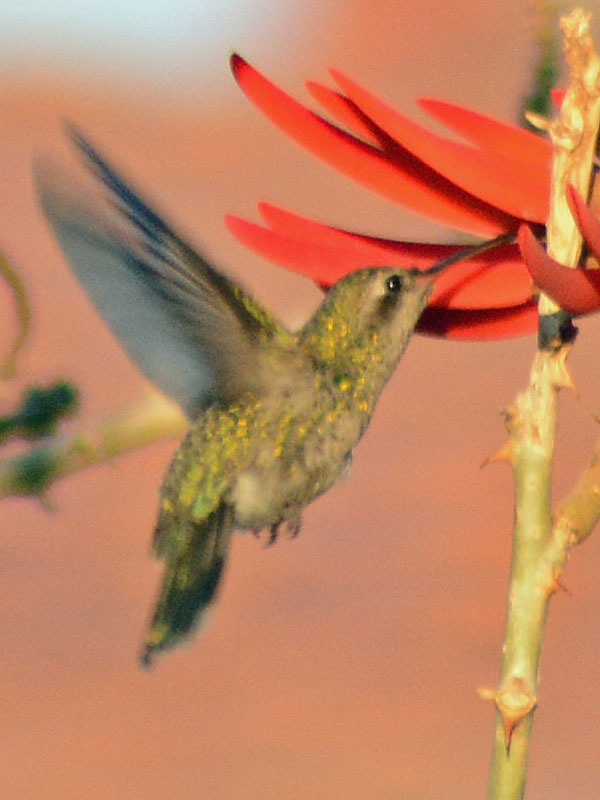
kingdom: Animalia
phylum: Chordata
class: Aves
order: Apodiformes
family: Trochilidae
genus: Cynanthus
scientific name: Cynanthus latirostris
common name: Broad-billed hummingbird
